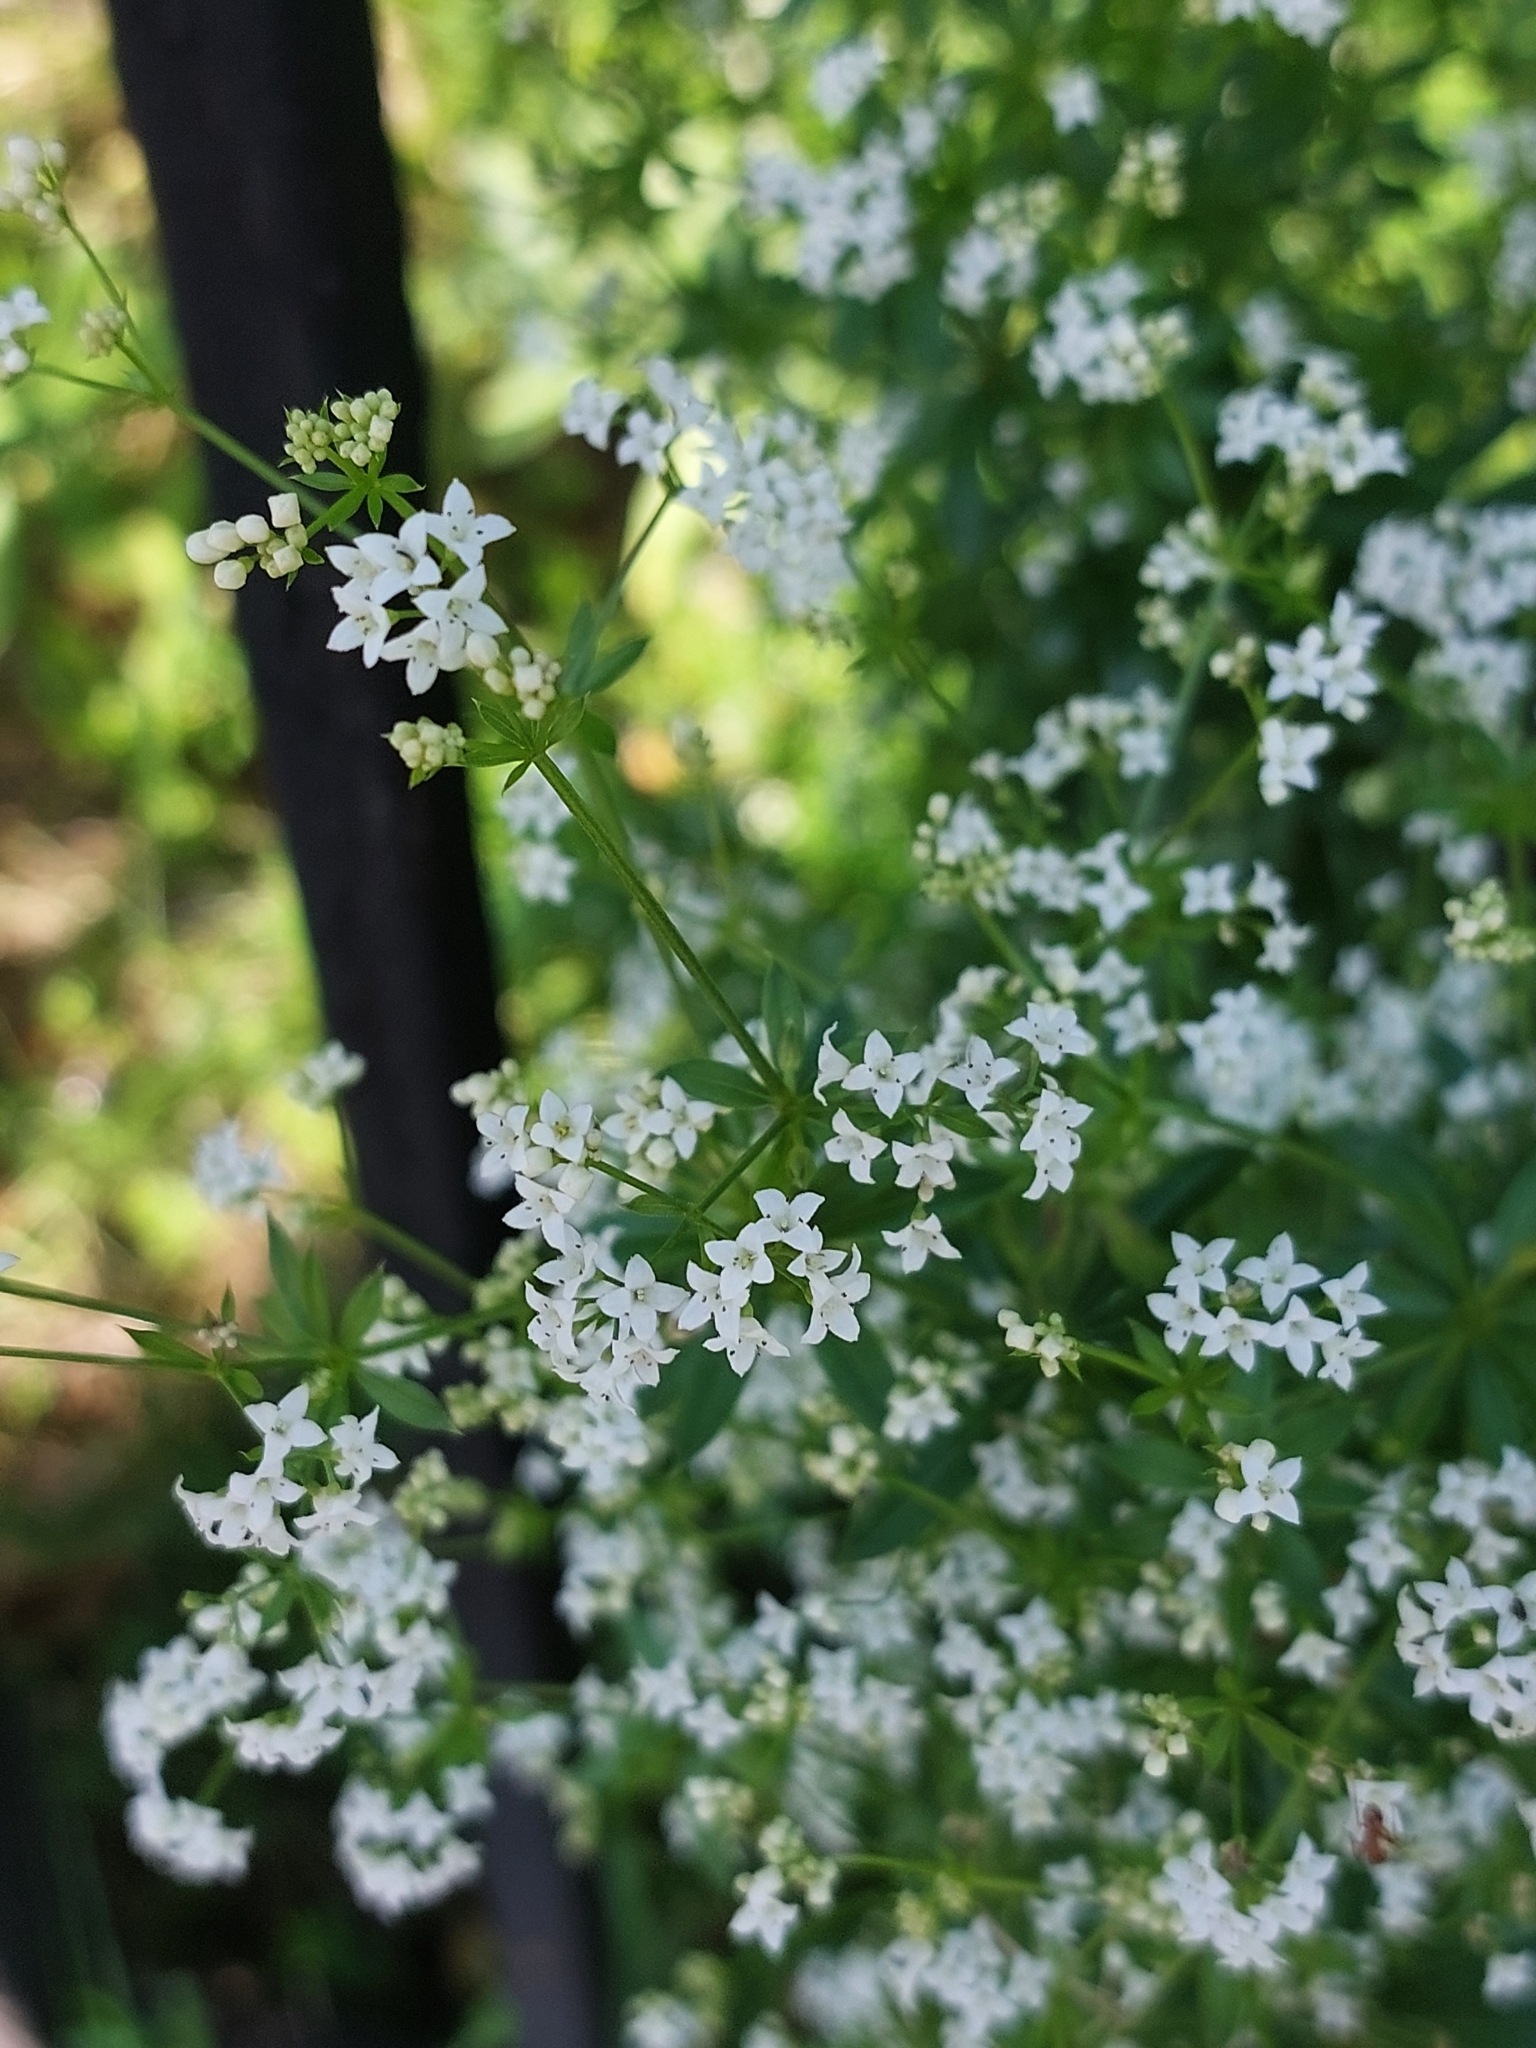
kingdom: Plantae
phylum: Tracheophyta
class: Magnoliopsida
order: Gentianales
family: Rubiaceae
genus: Galium
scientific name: Galium rivale
